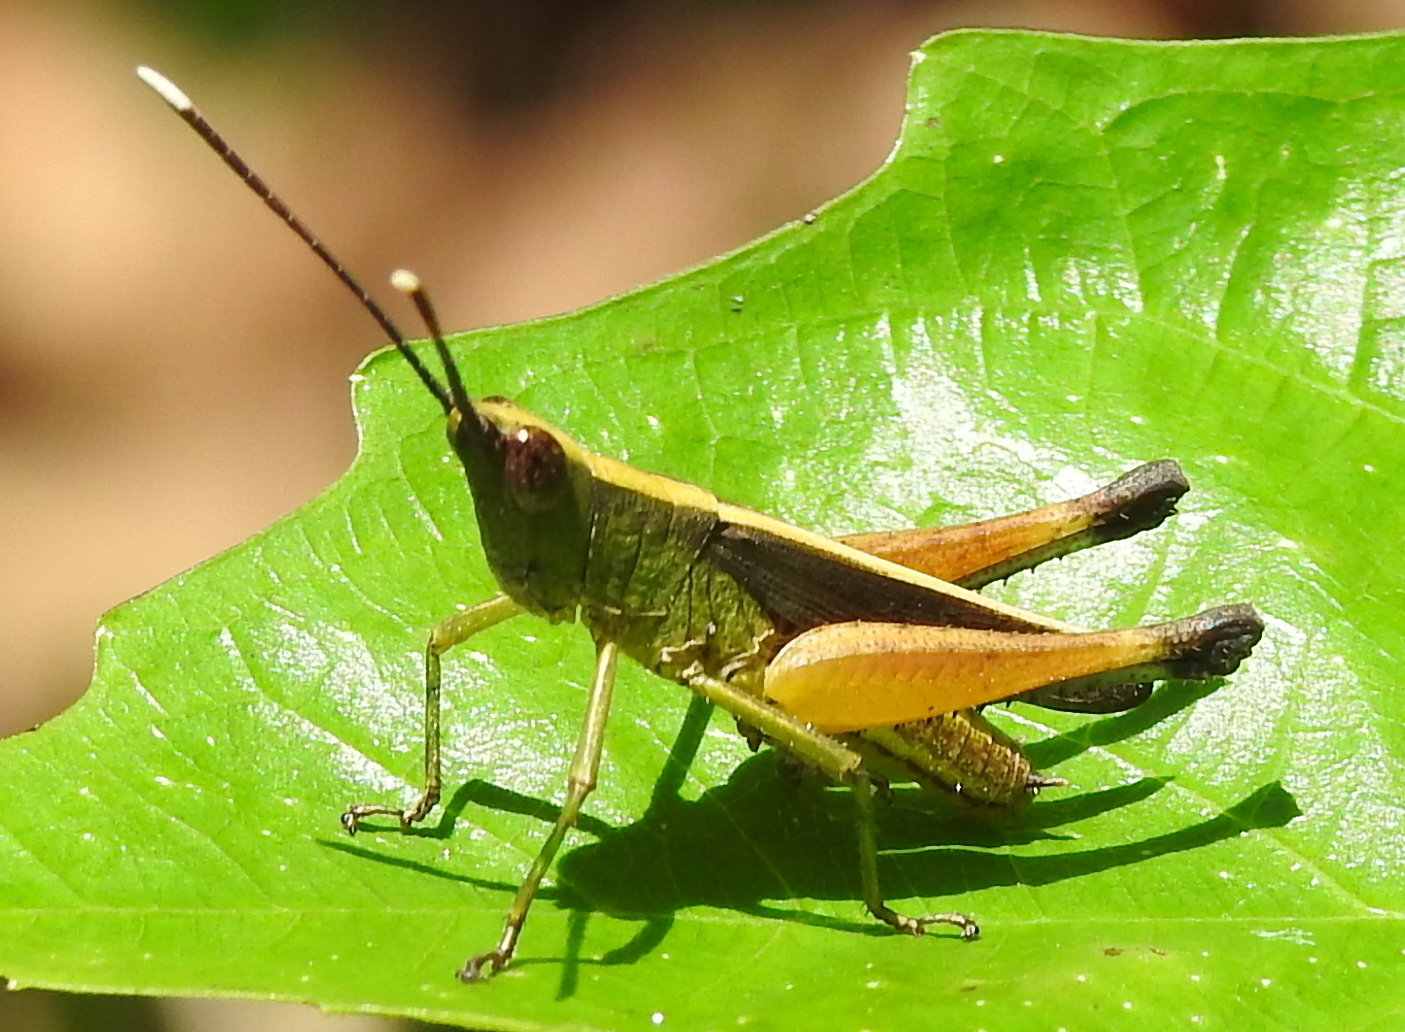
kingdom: Animalia
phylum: Arthropoda
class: Insecta
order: Orthoptera
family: Acrididae
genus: Phlaeoba
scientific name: Phlaeoba antennata
